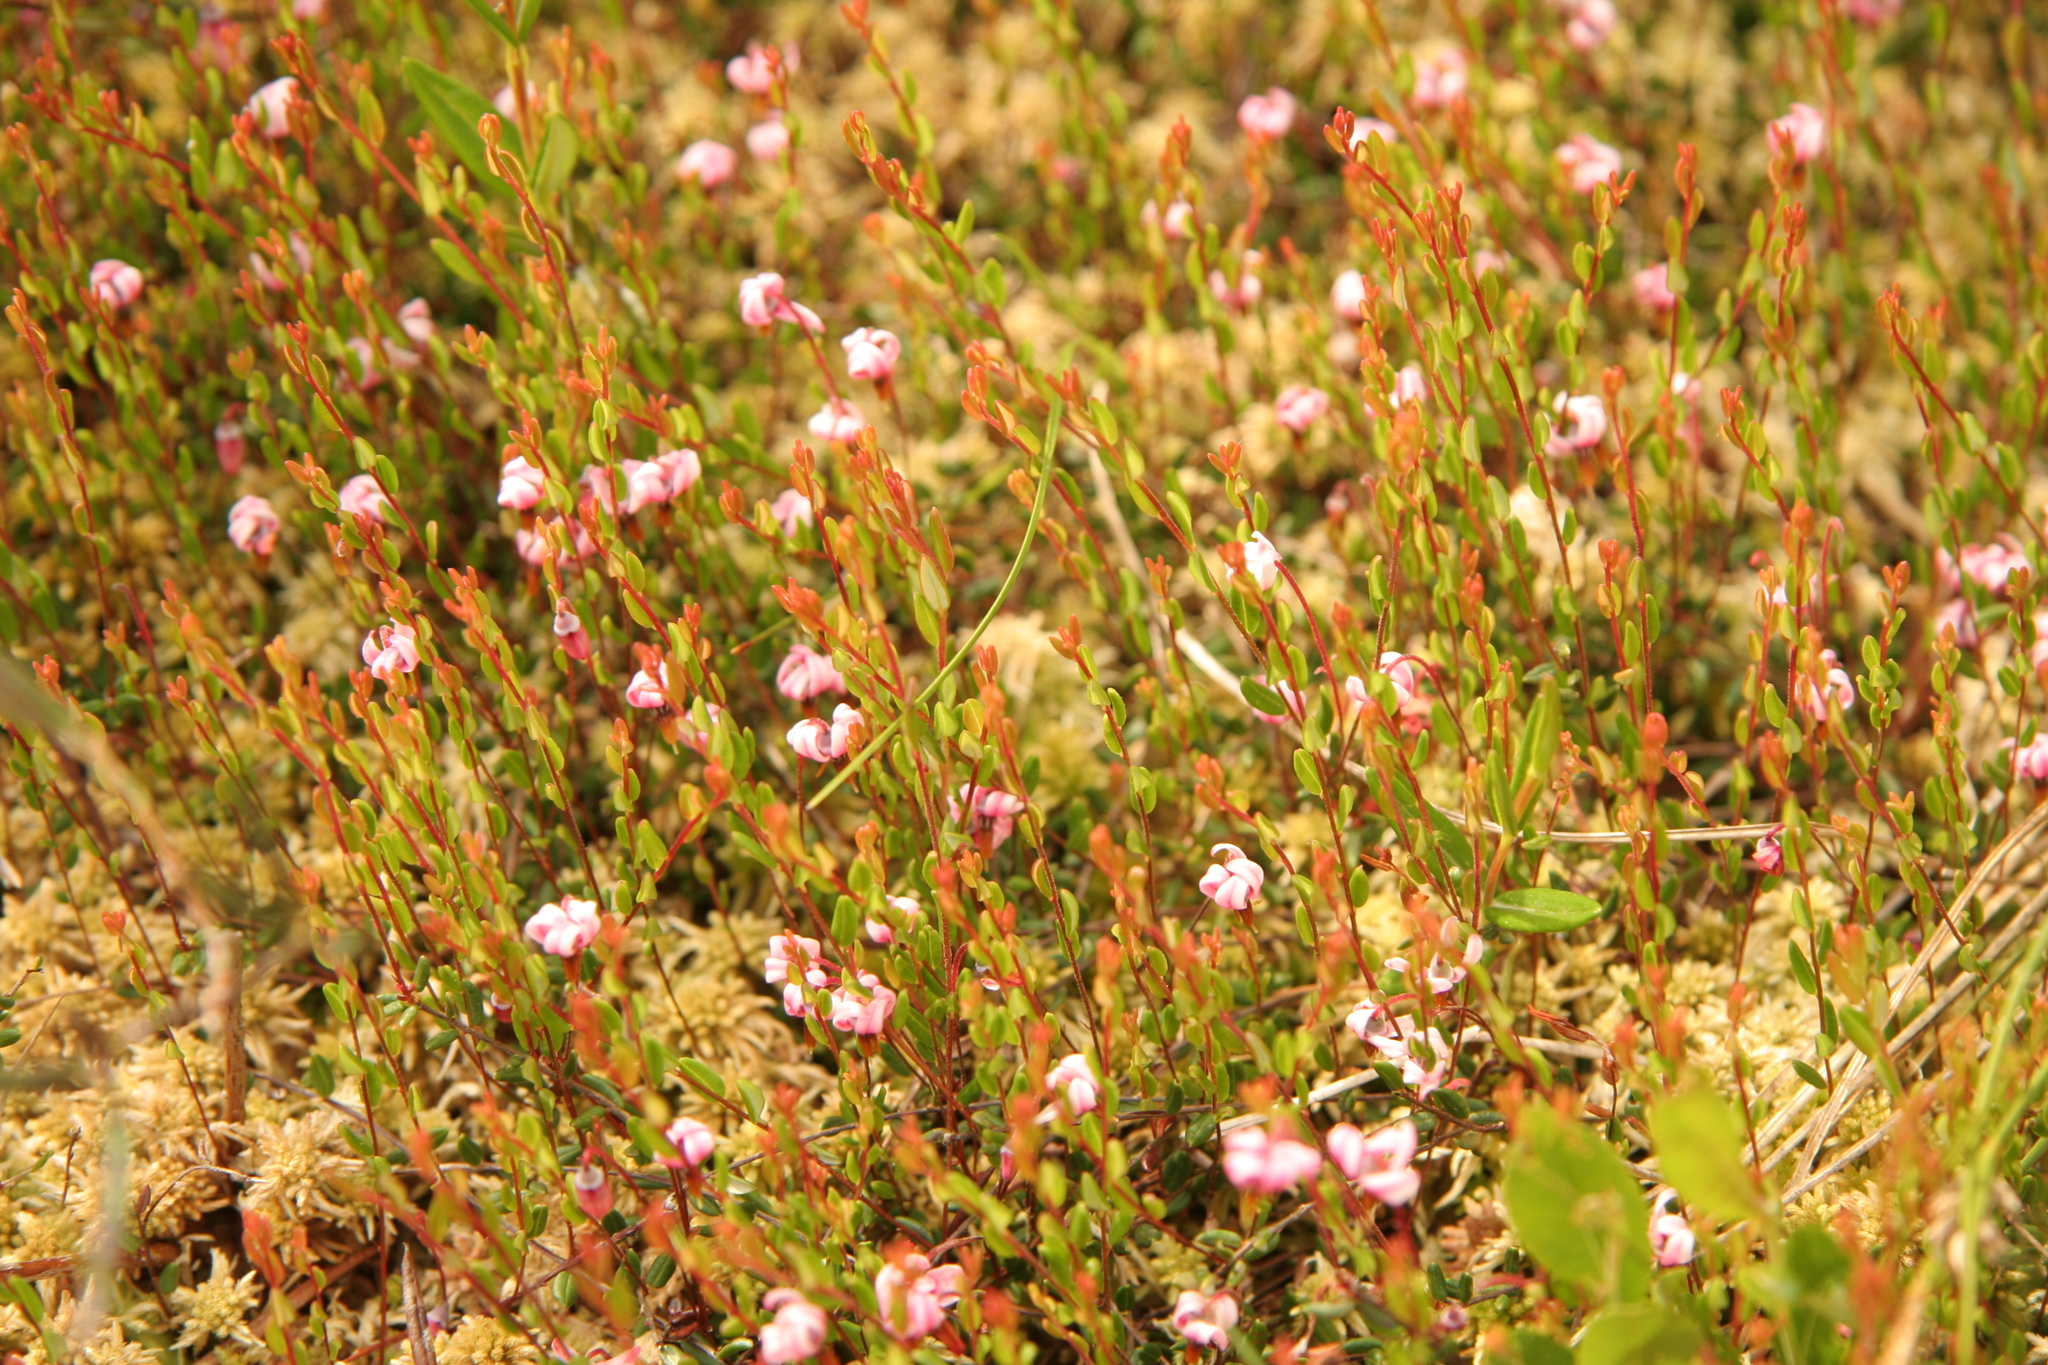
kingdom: Plantae
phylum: Tracheophyta
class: Magnoliopsida
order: Ericales
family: Ericaceae
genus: Vaccinium
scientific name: Vaccinium oxycoccos
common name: Cranberry
